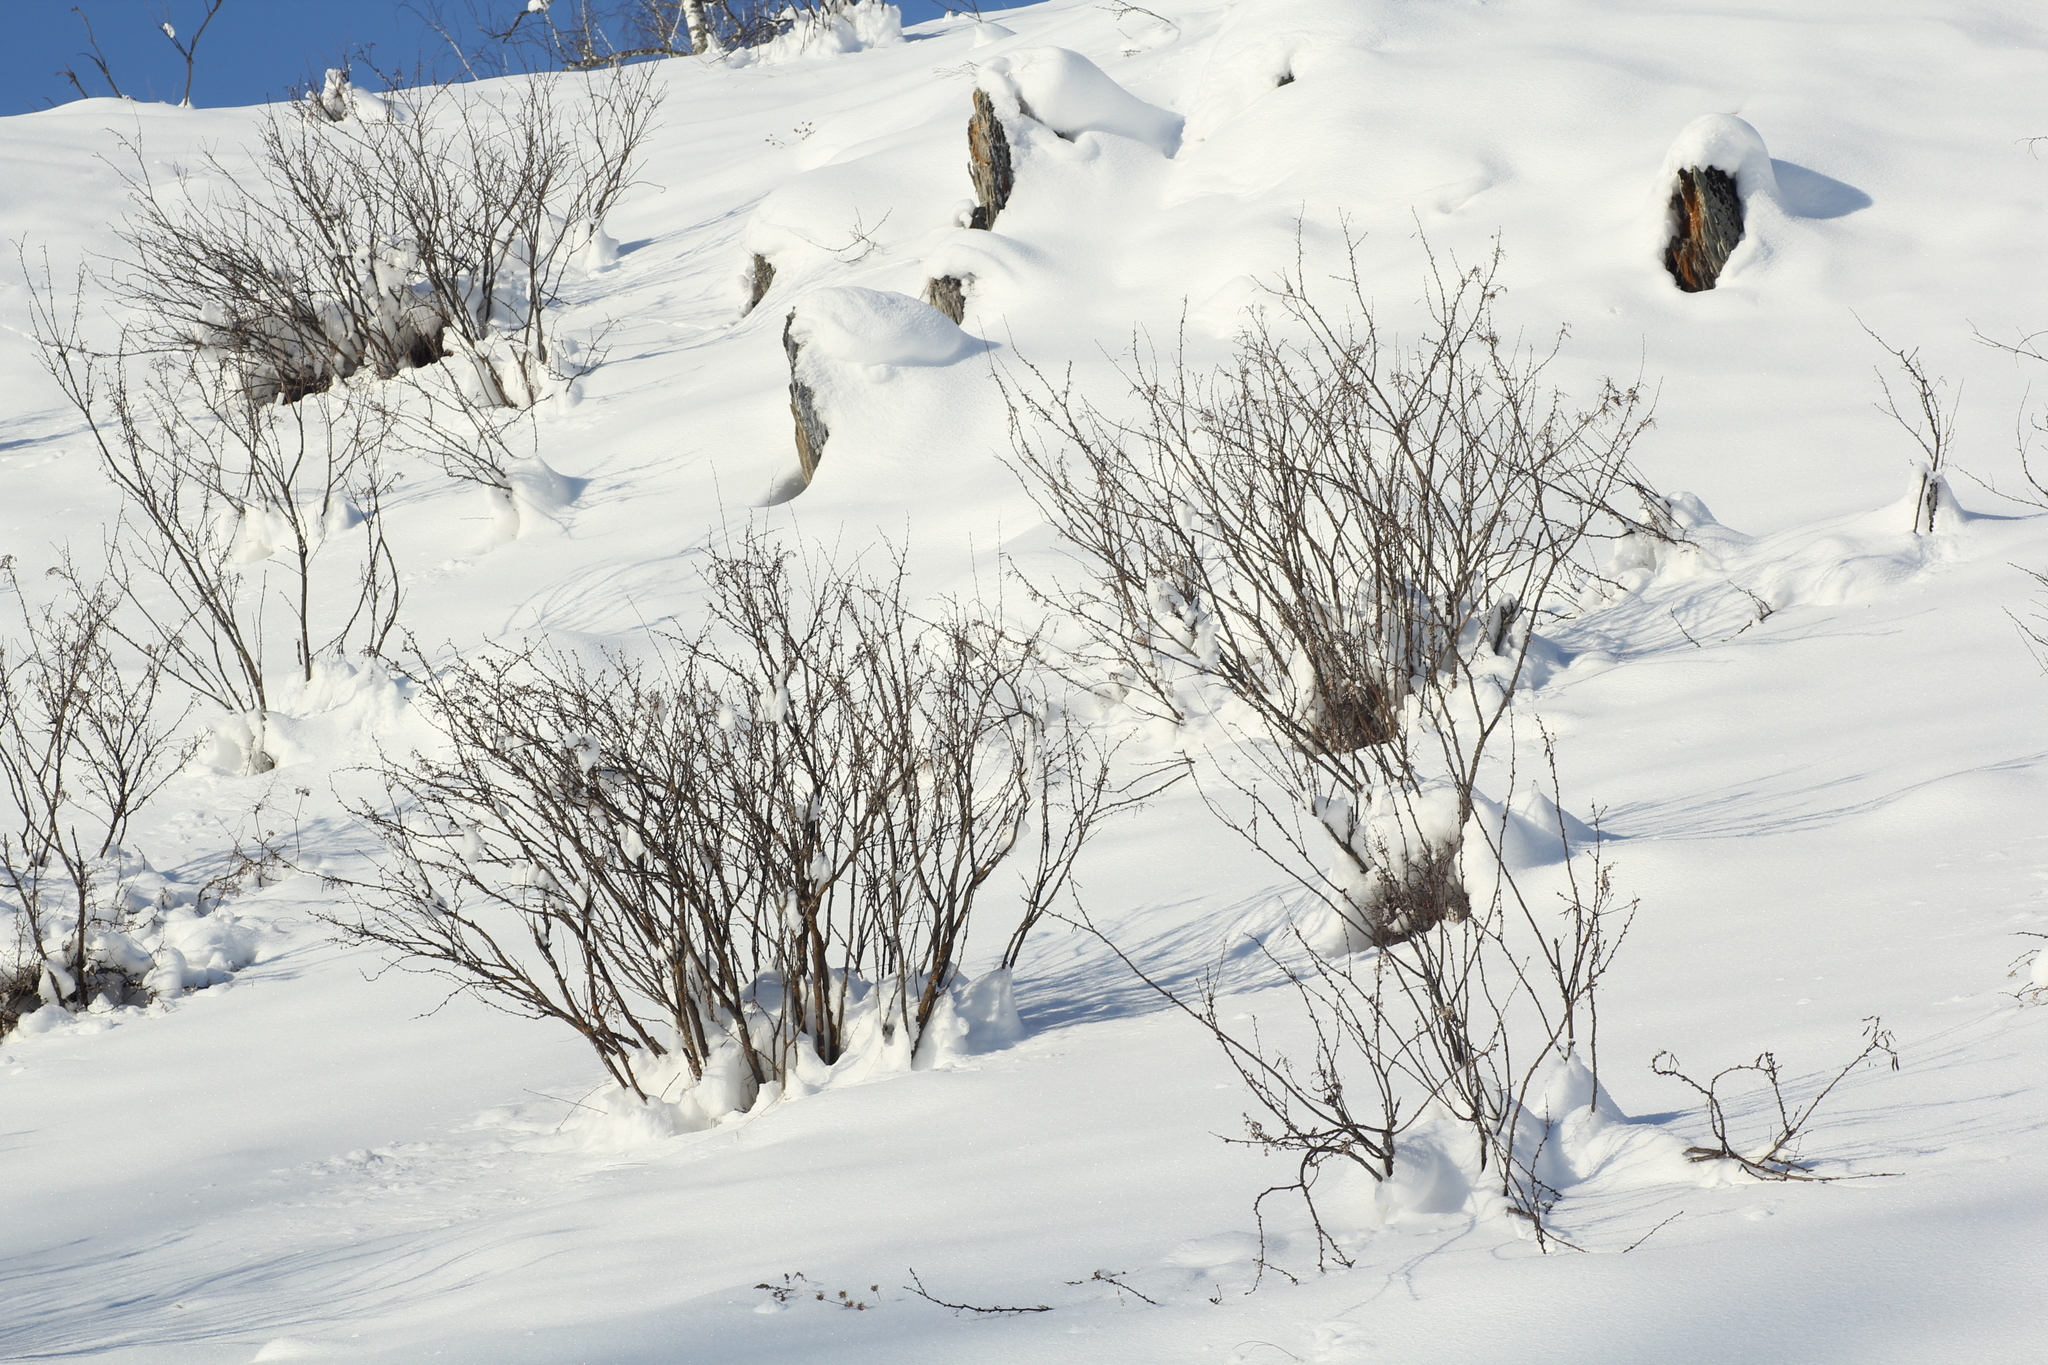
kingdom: Plantae
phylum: Tracheophyta
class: Magnoliopsida
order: Fabales
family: Fabaceae
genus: Caragana
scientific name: Caragana arborescens
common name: Siberian peashrub
